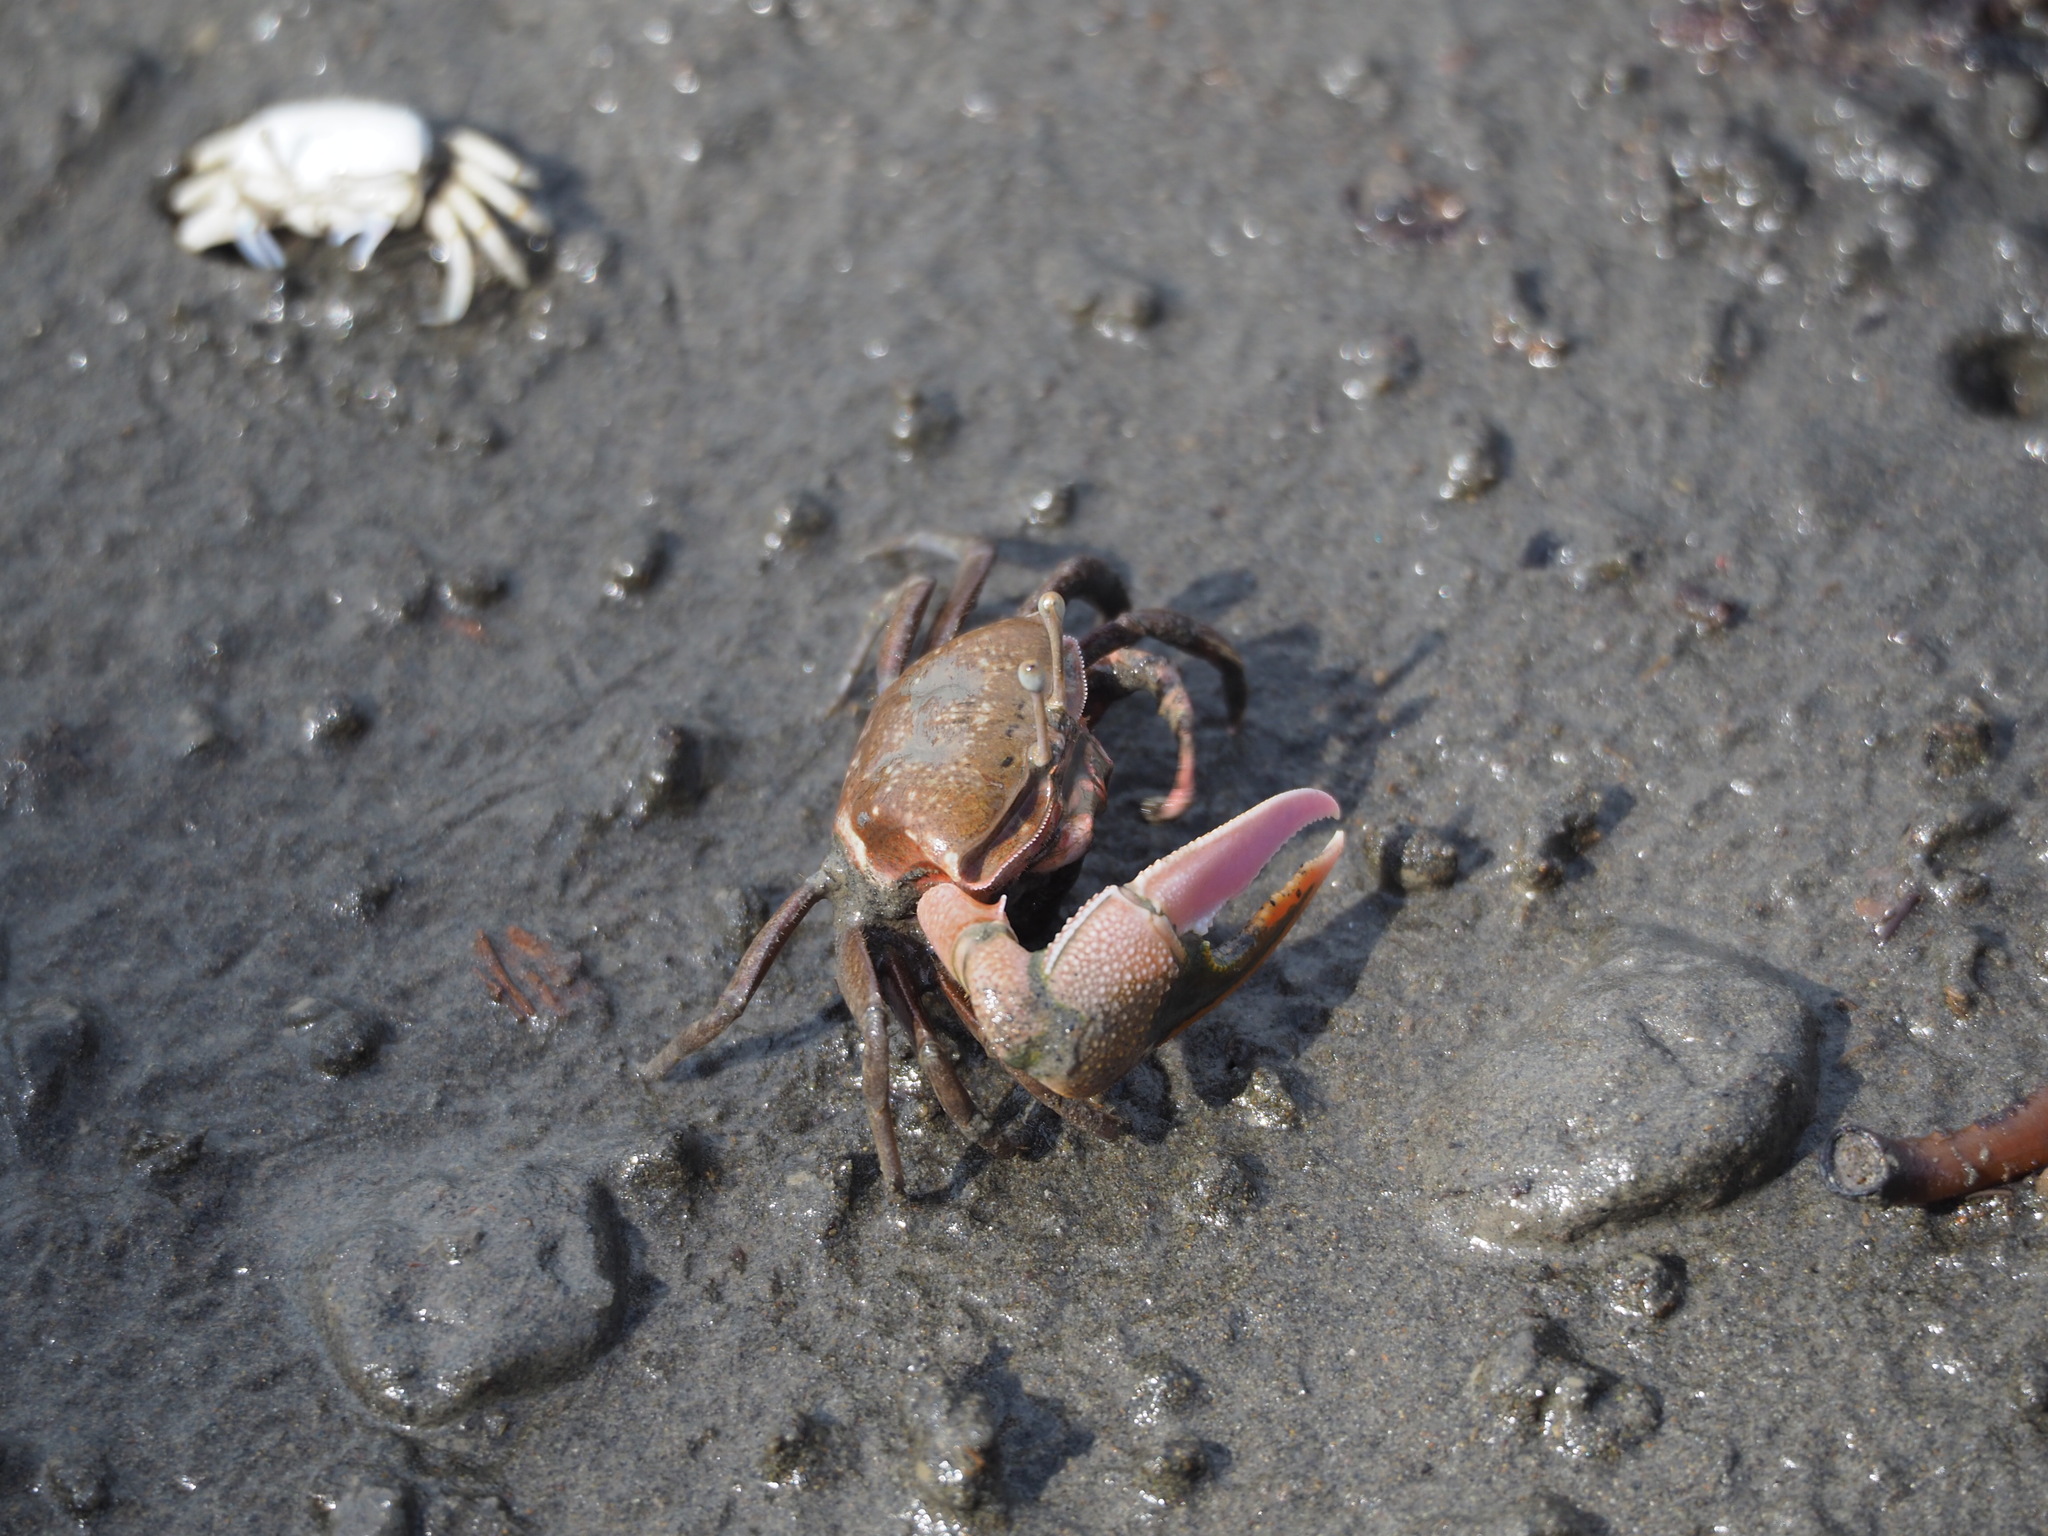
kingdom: Animalia
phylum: Arthropoda
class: Malacostraca
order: Decapoda
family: Ocypodidae
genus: Gelasimus
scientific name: Gelasimus borealis
